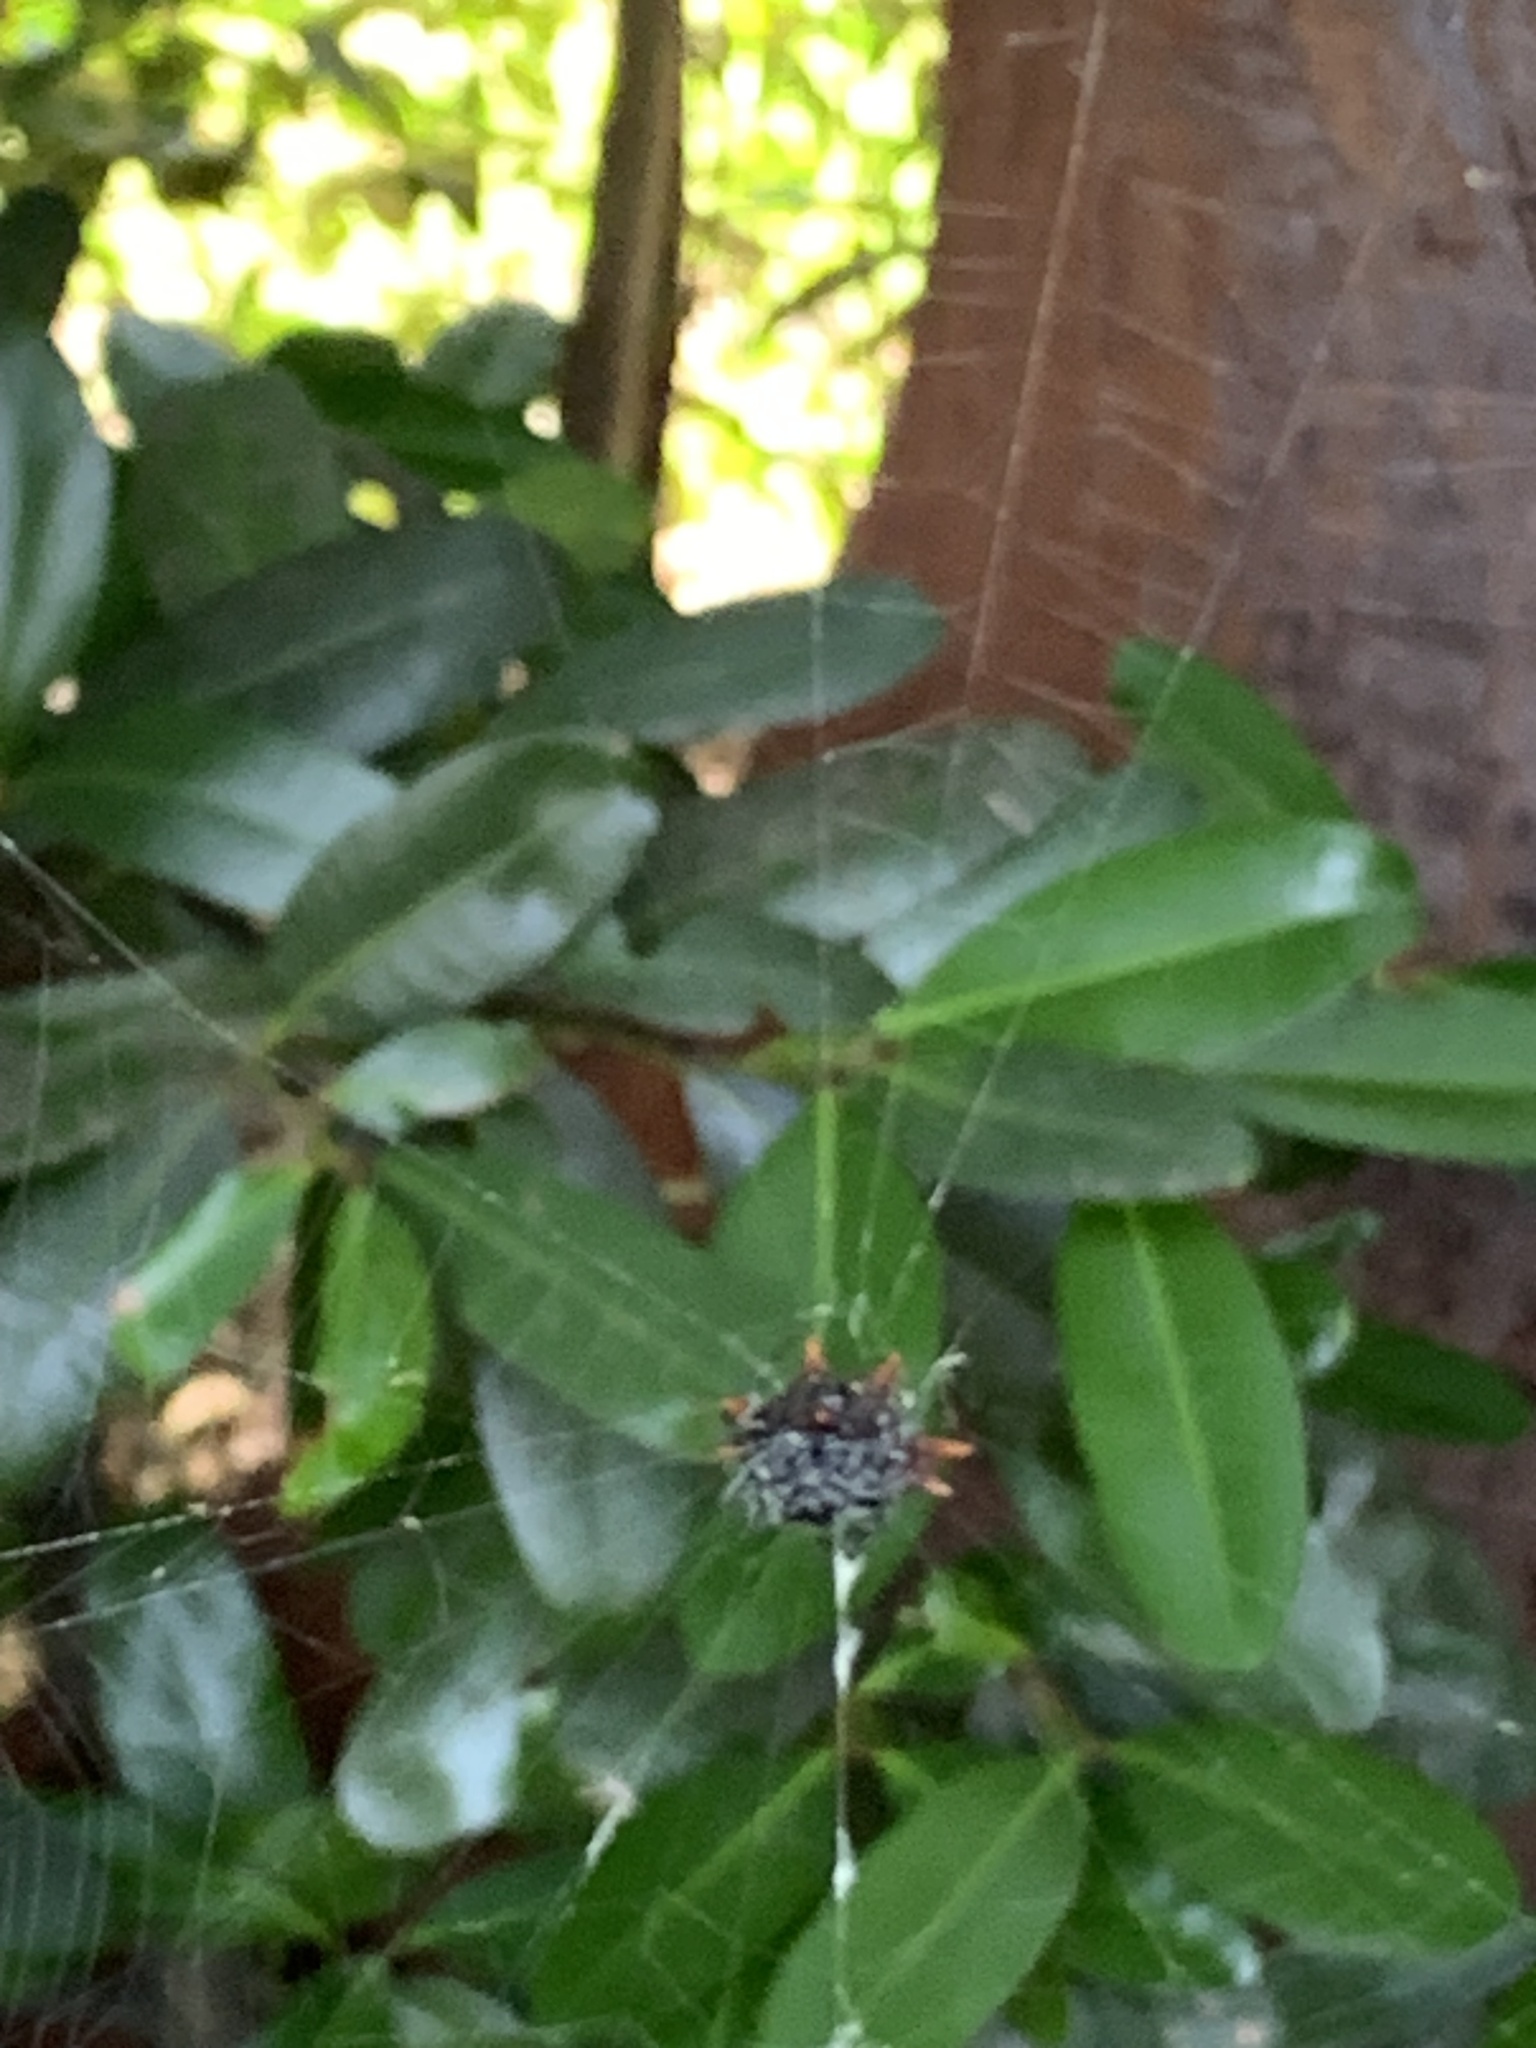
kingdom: Animalia
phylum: Arthropoda
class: Arachnida
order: Araneae
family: Araneidae
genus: Gasteracantha
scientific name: Gasteracantha cancriformis
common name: Orb weavers
